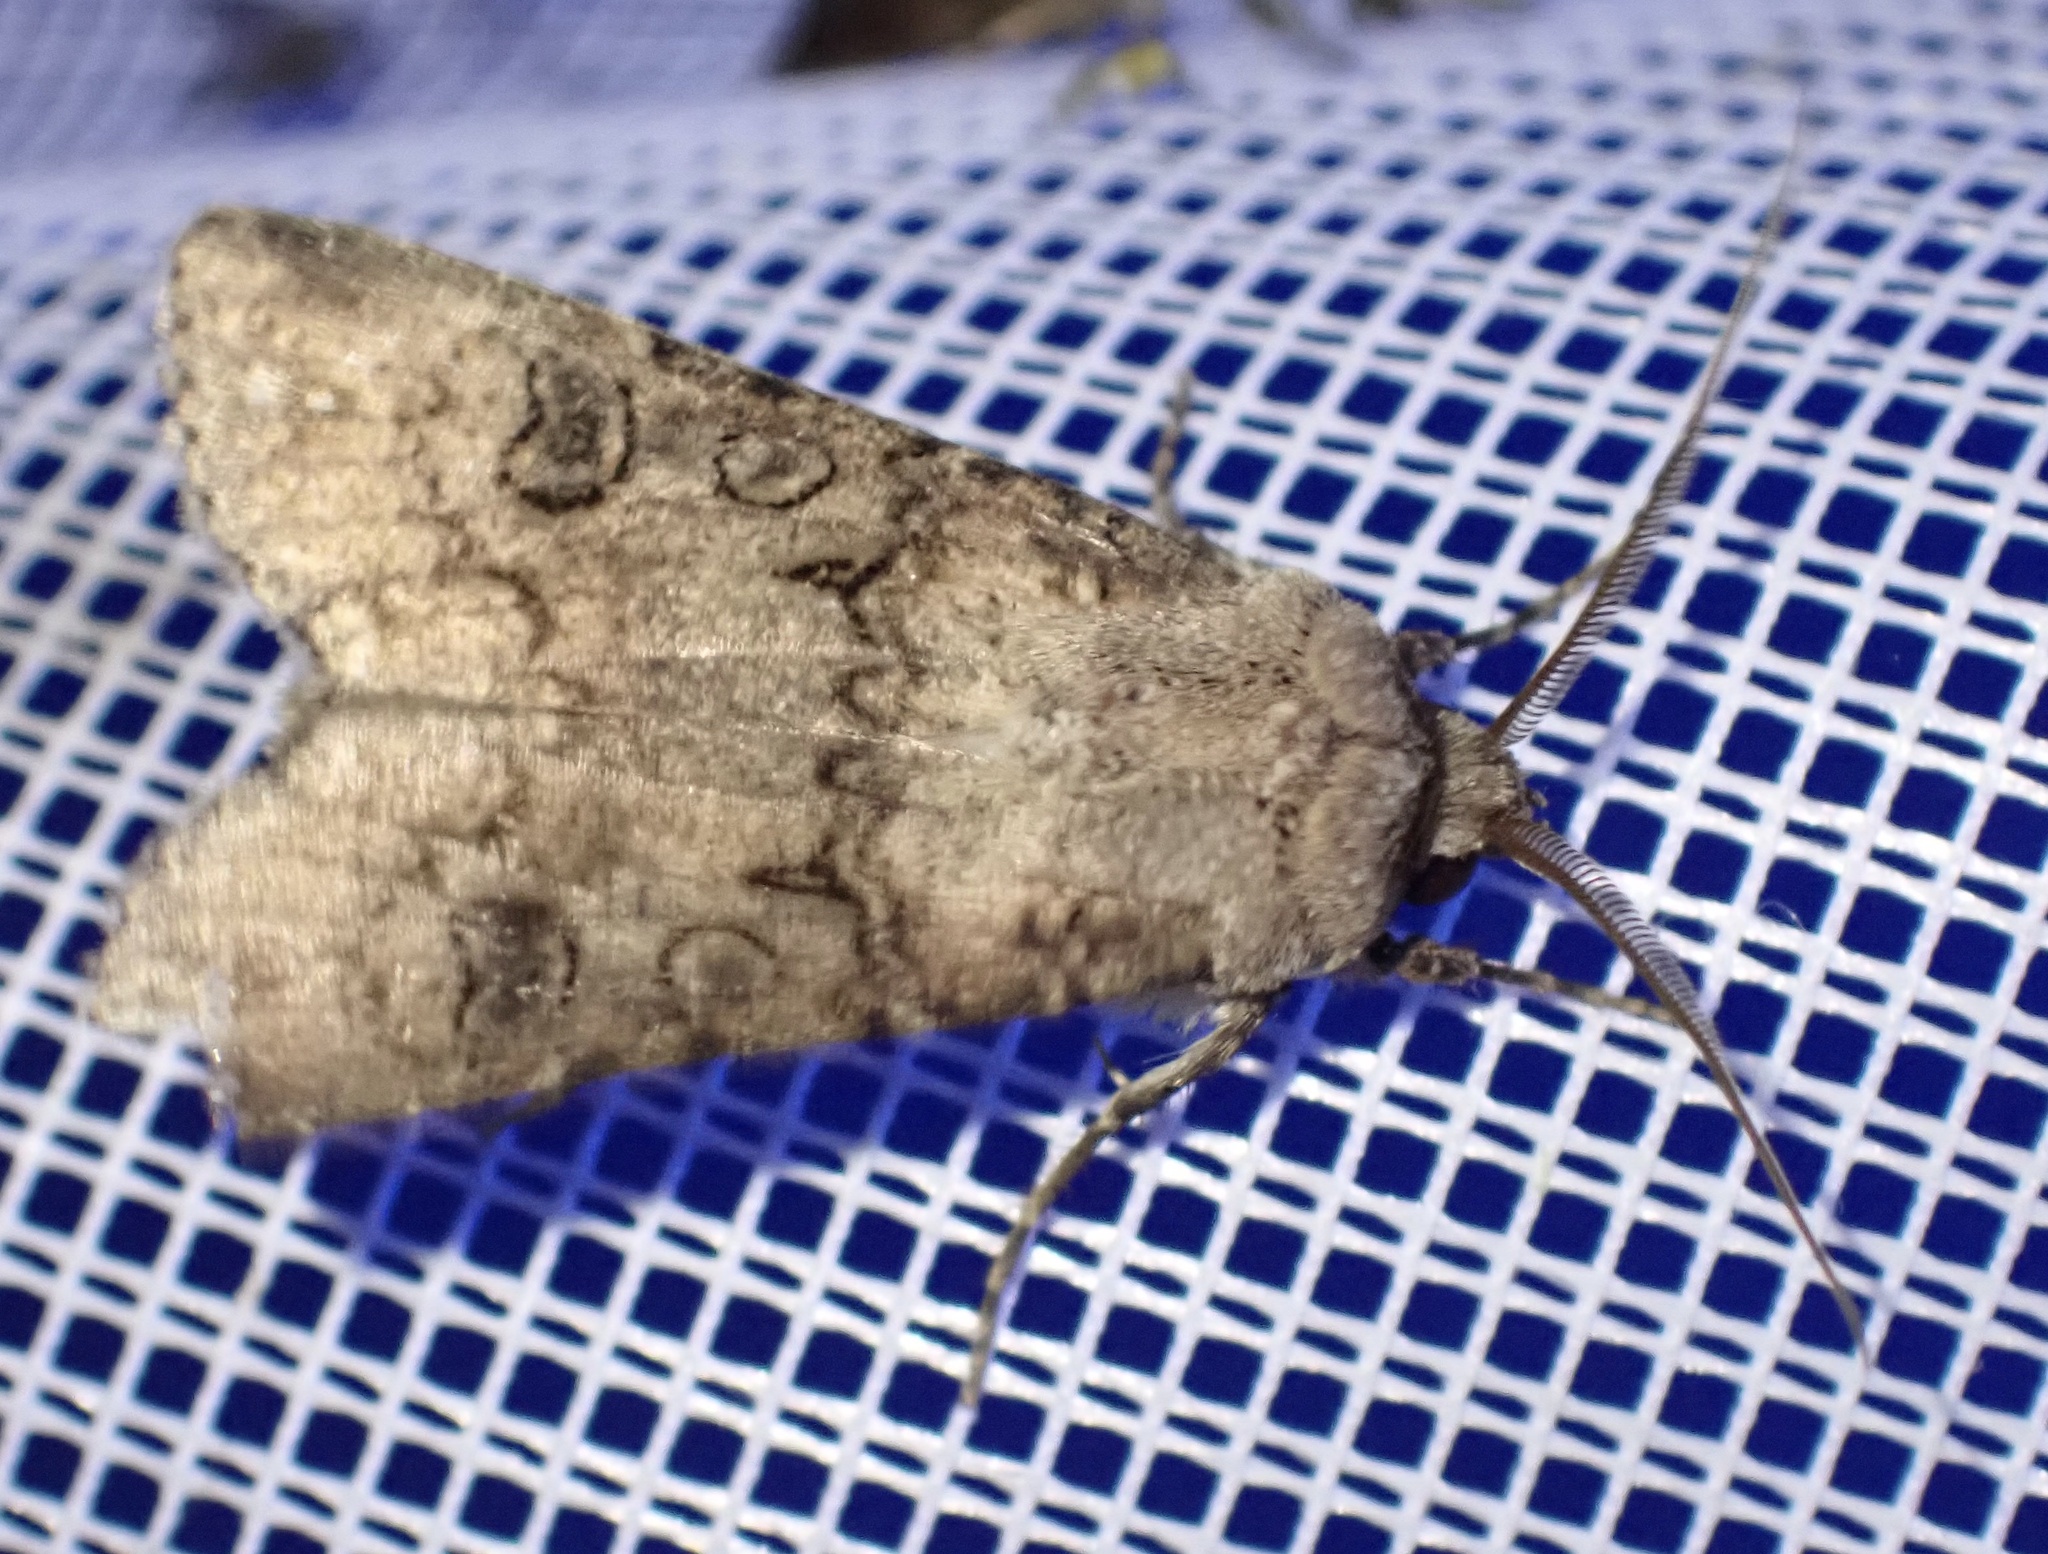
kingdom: Animalia
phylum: Arthropoda
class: Insecta
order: Lepidoptera
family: Noctuidae
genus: Agrotis
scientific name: Agrotis segetum
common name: Turnip moth
